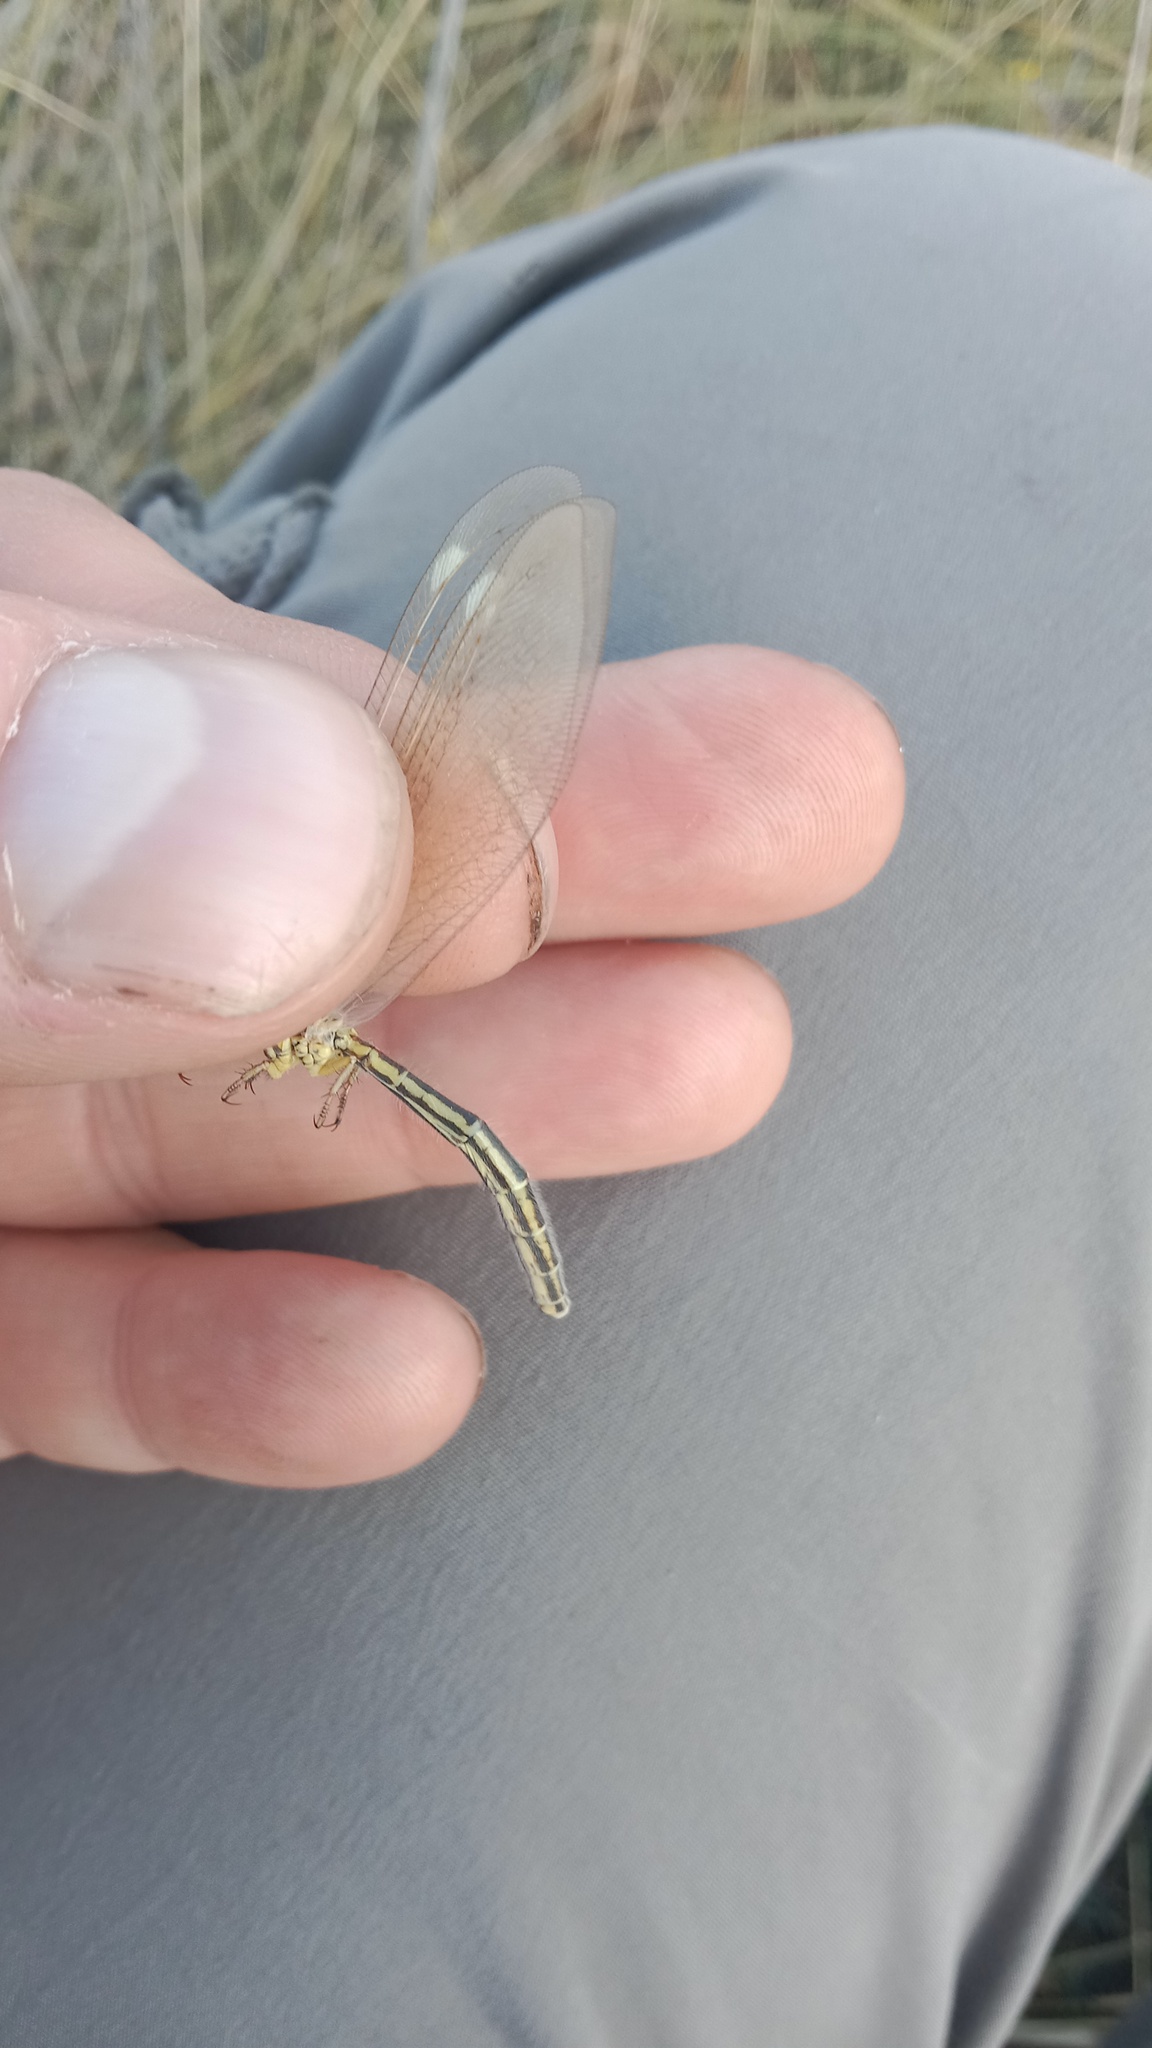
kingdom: Animalia
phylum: Arthropoda
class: Insecta
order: Neuroptera
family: Myrmeleontidae
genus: Myrmecaelurus
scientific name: Myrmecaelurus trigrammus
